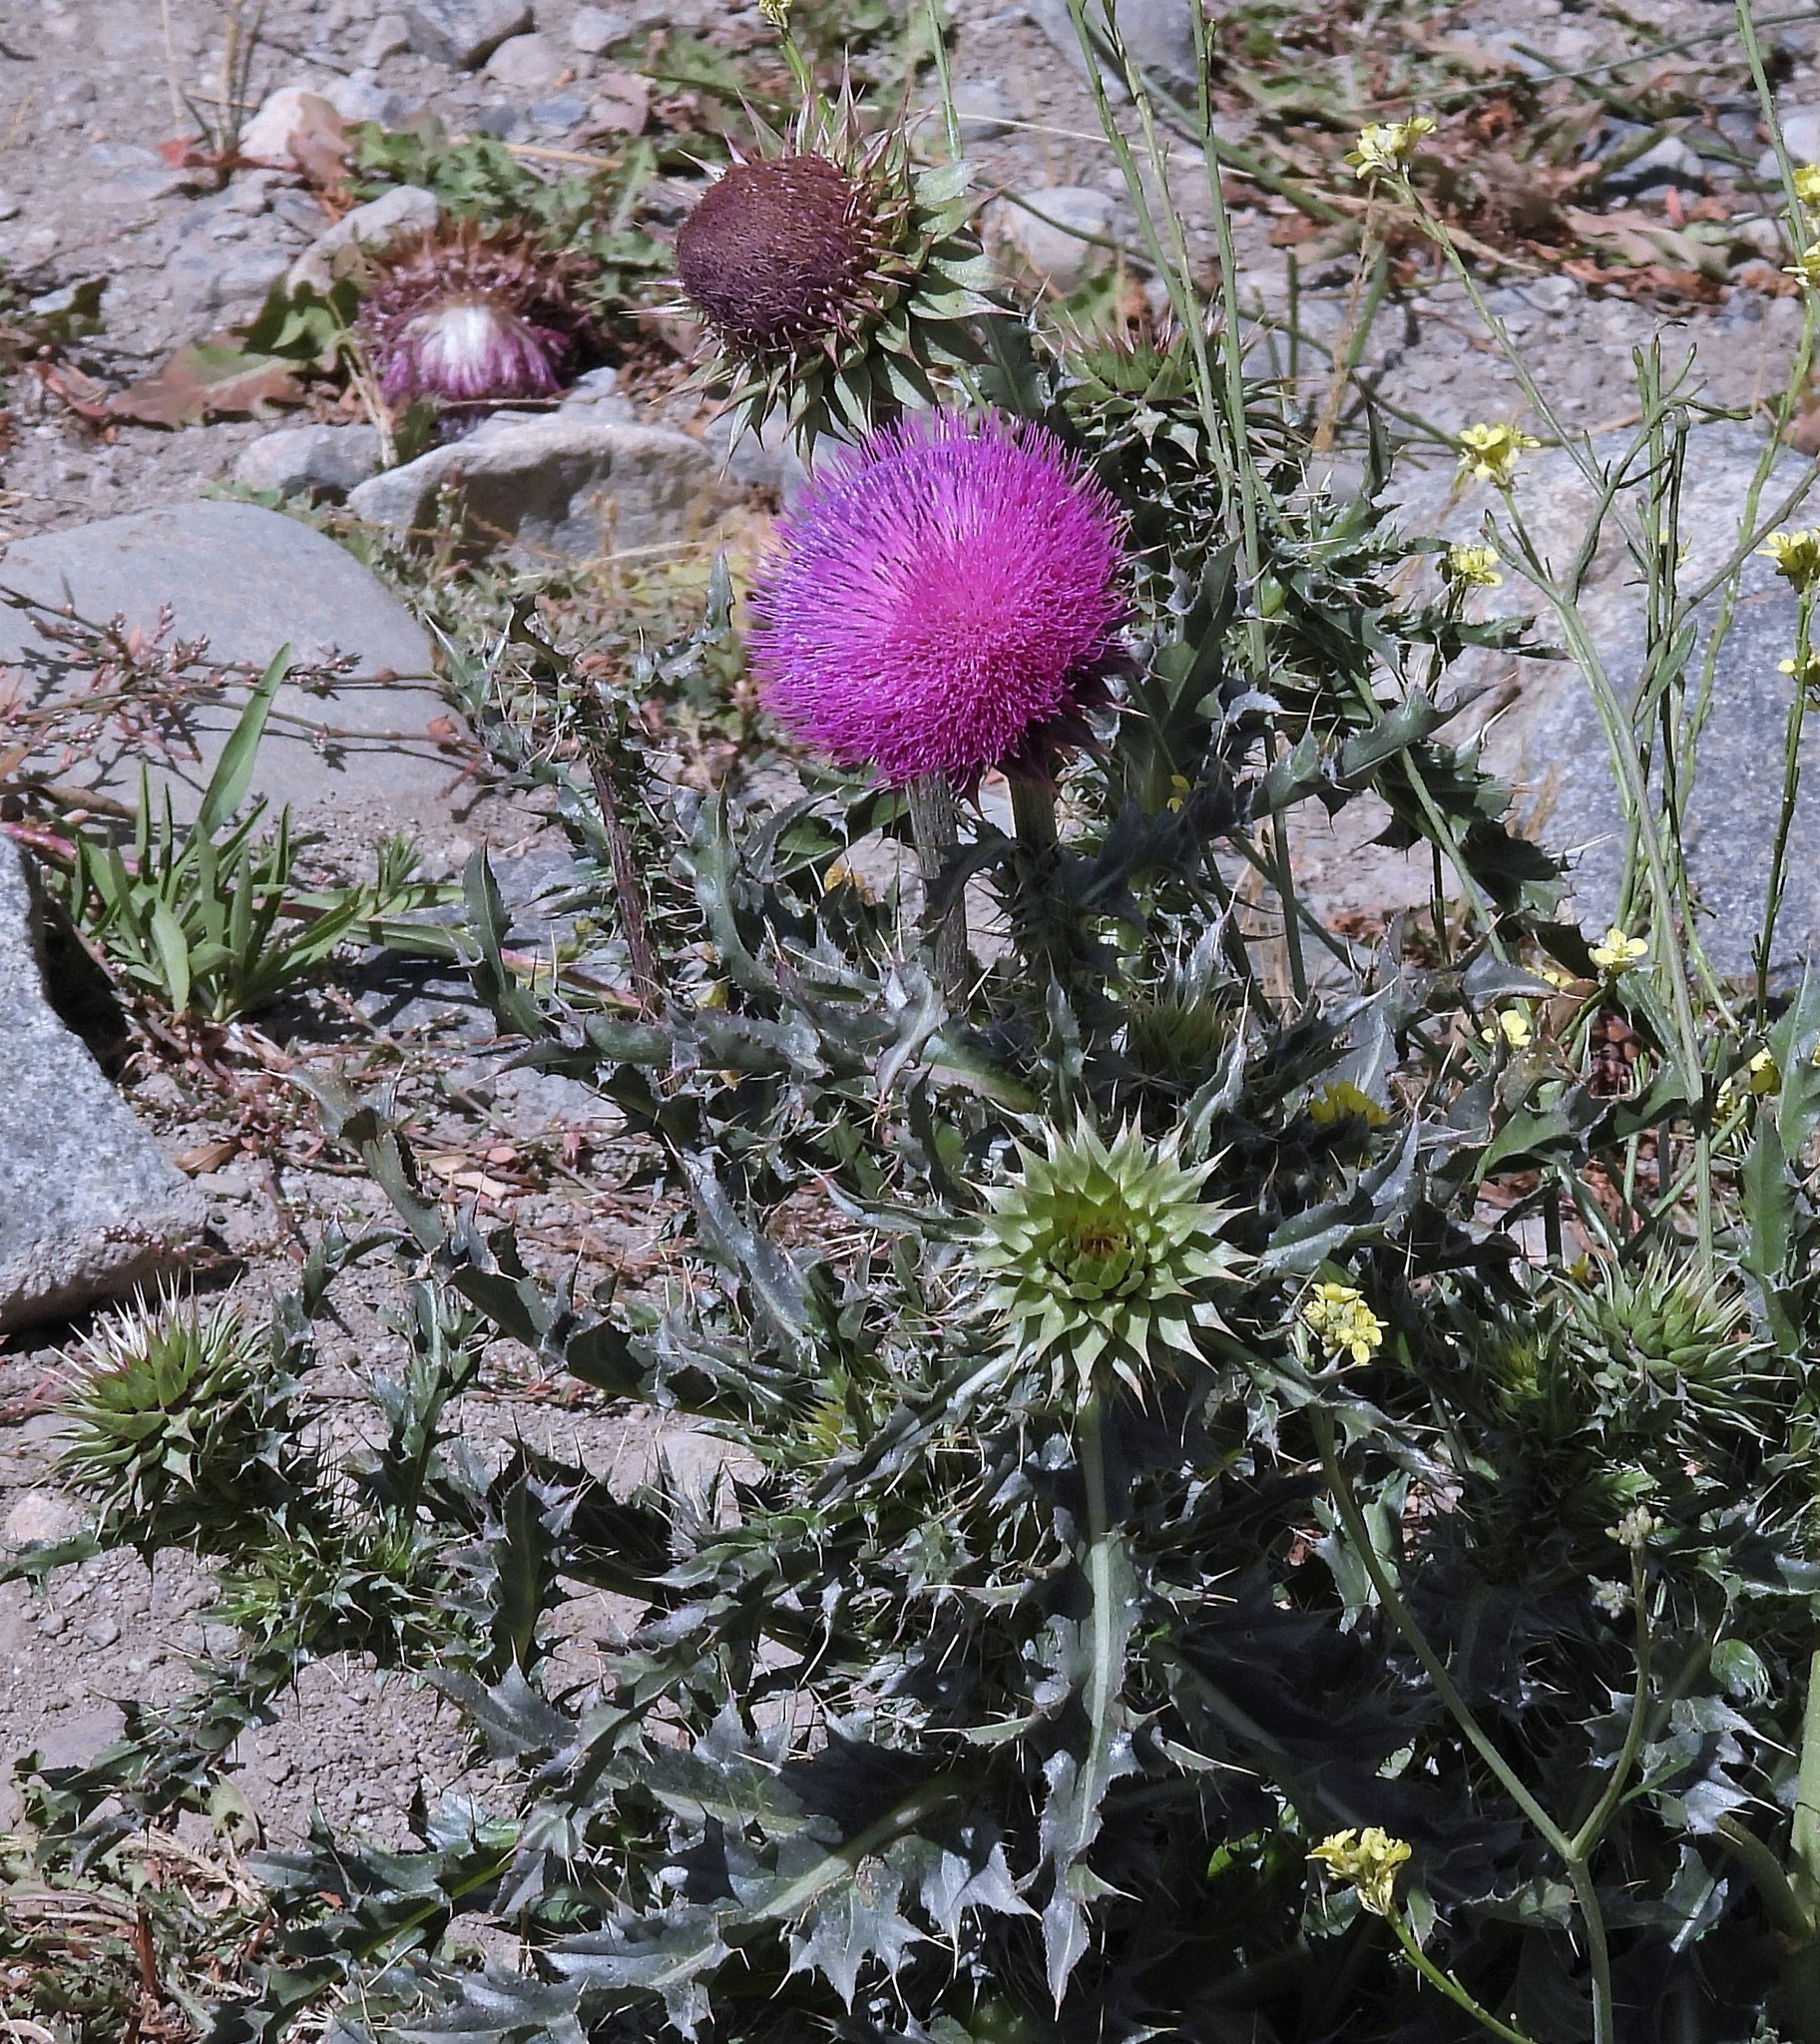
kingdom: Plantae
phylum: Tracheophyta
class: Magnoliopsida
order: Asterales
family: Asteraceae
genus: Carduus
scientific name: Carduus nutans
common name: Musk thistle
